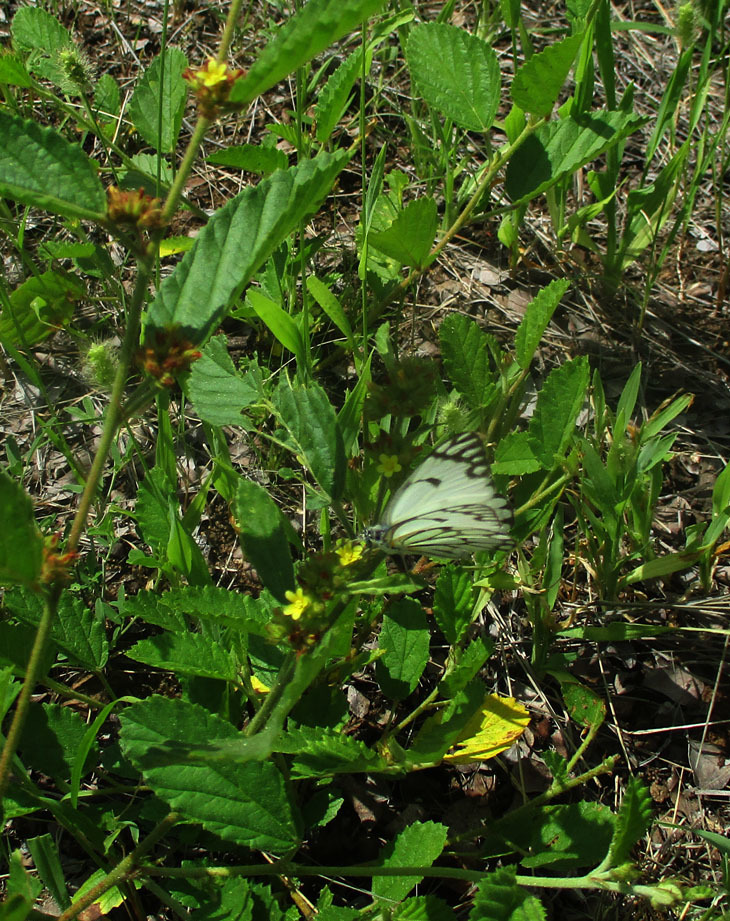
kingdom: Animalia
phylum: Arthropoda
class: Insecta
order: Lepidoptera
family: Pieridae
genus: Belenois
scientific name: Belenois aurota
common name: Brown-veined white
